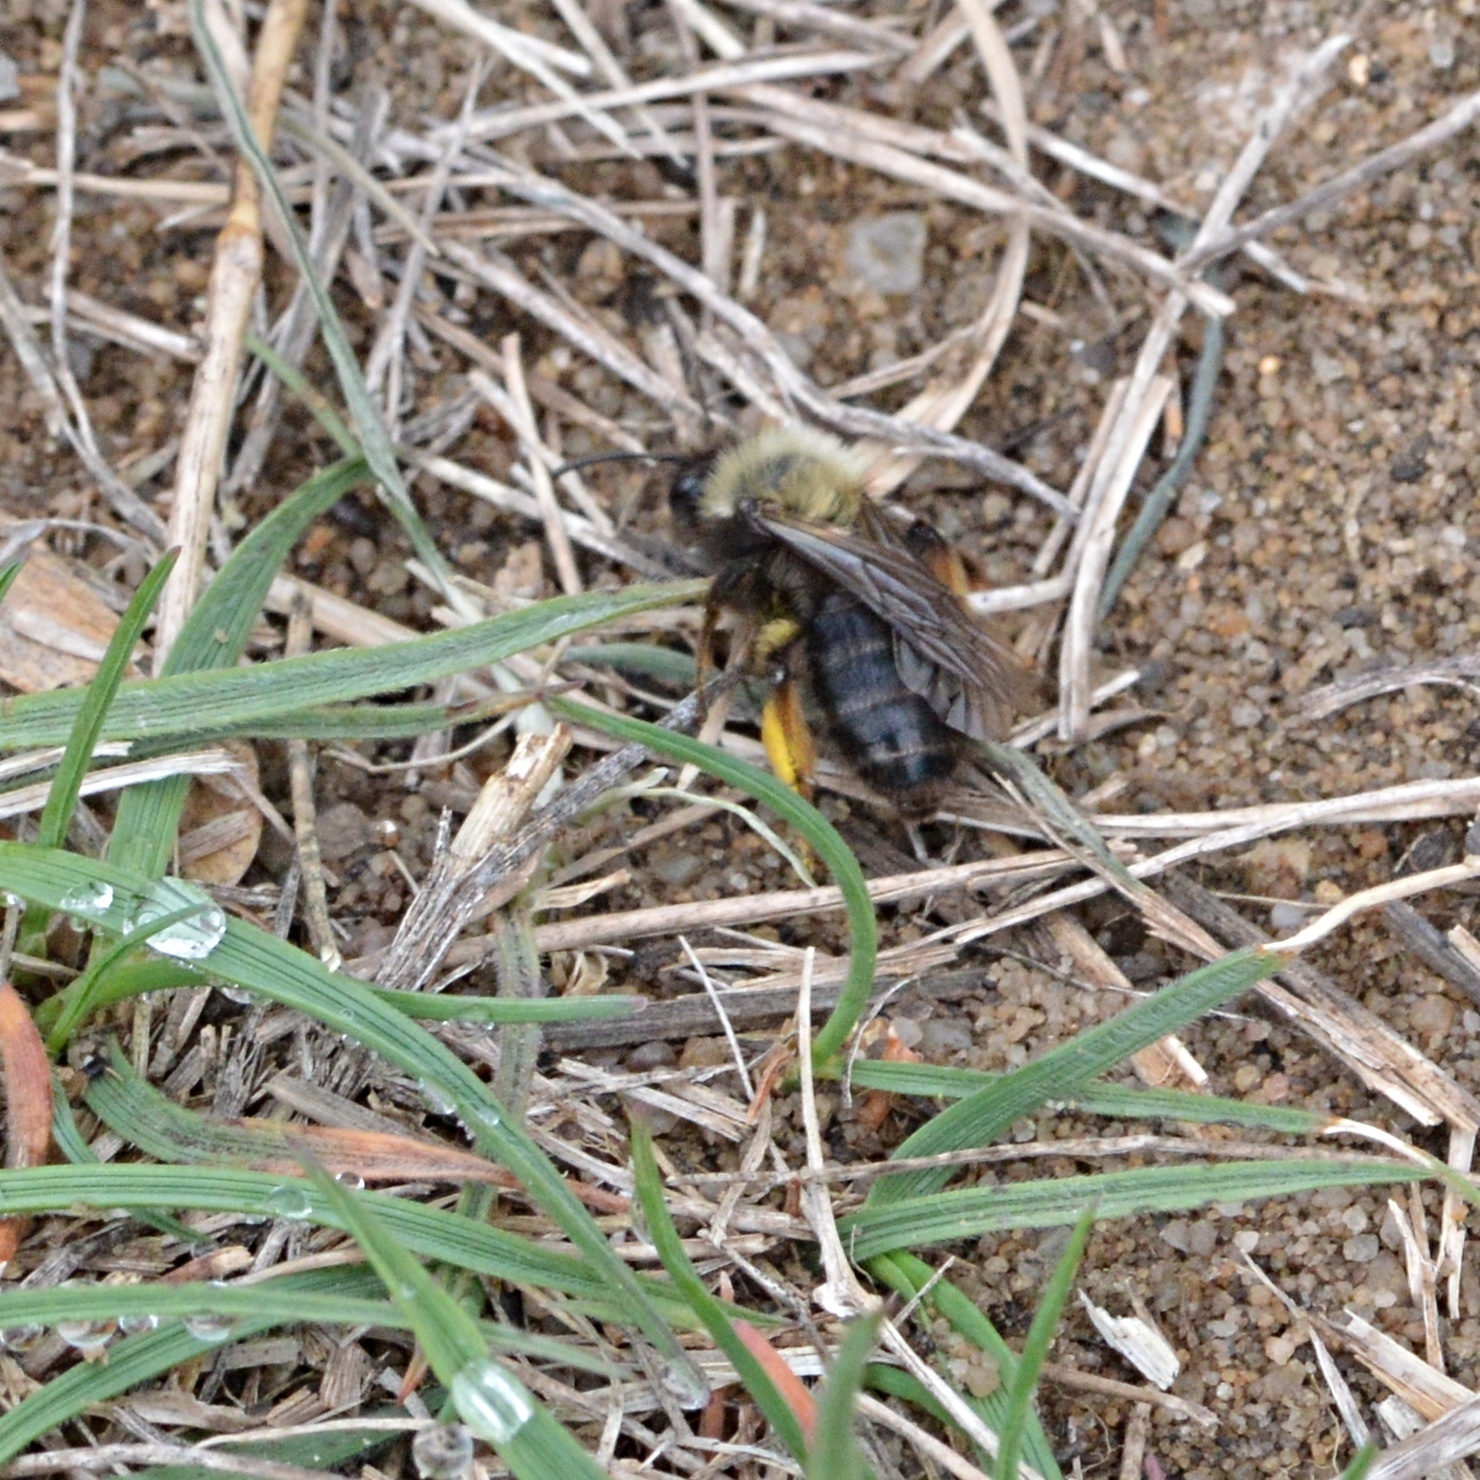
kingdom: Animalia
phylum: Arthropoda
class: Insecta
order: Hymenoptera
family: Andrenidae
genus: Andrena
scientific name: Andrena clarkella
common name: Clarke's mining bee
